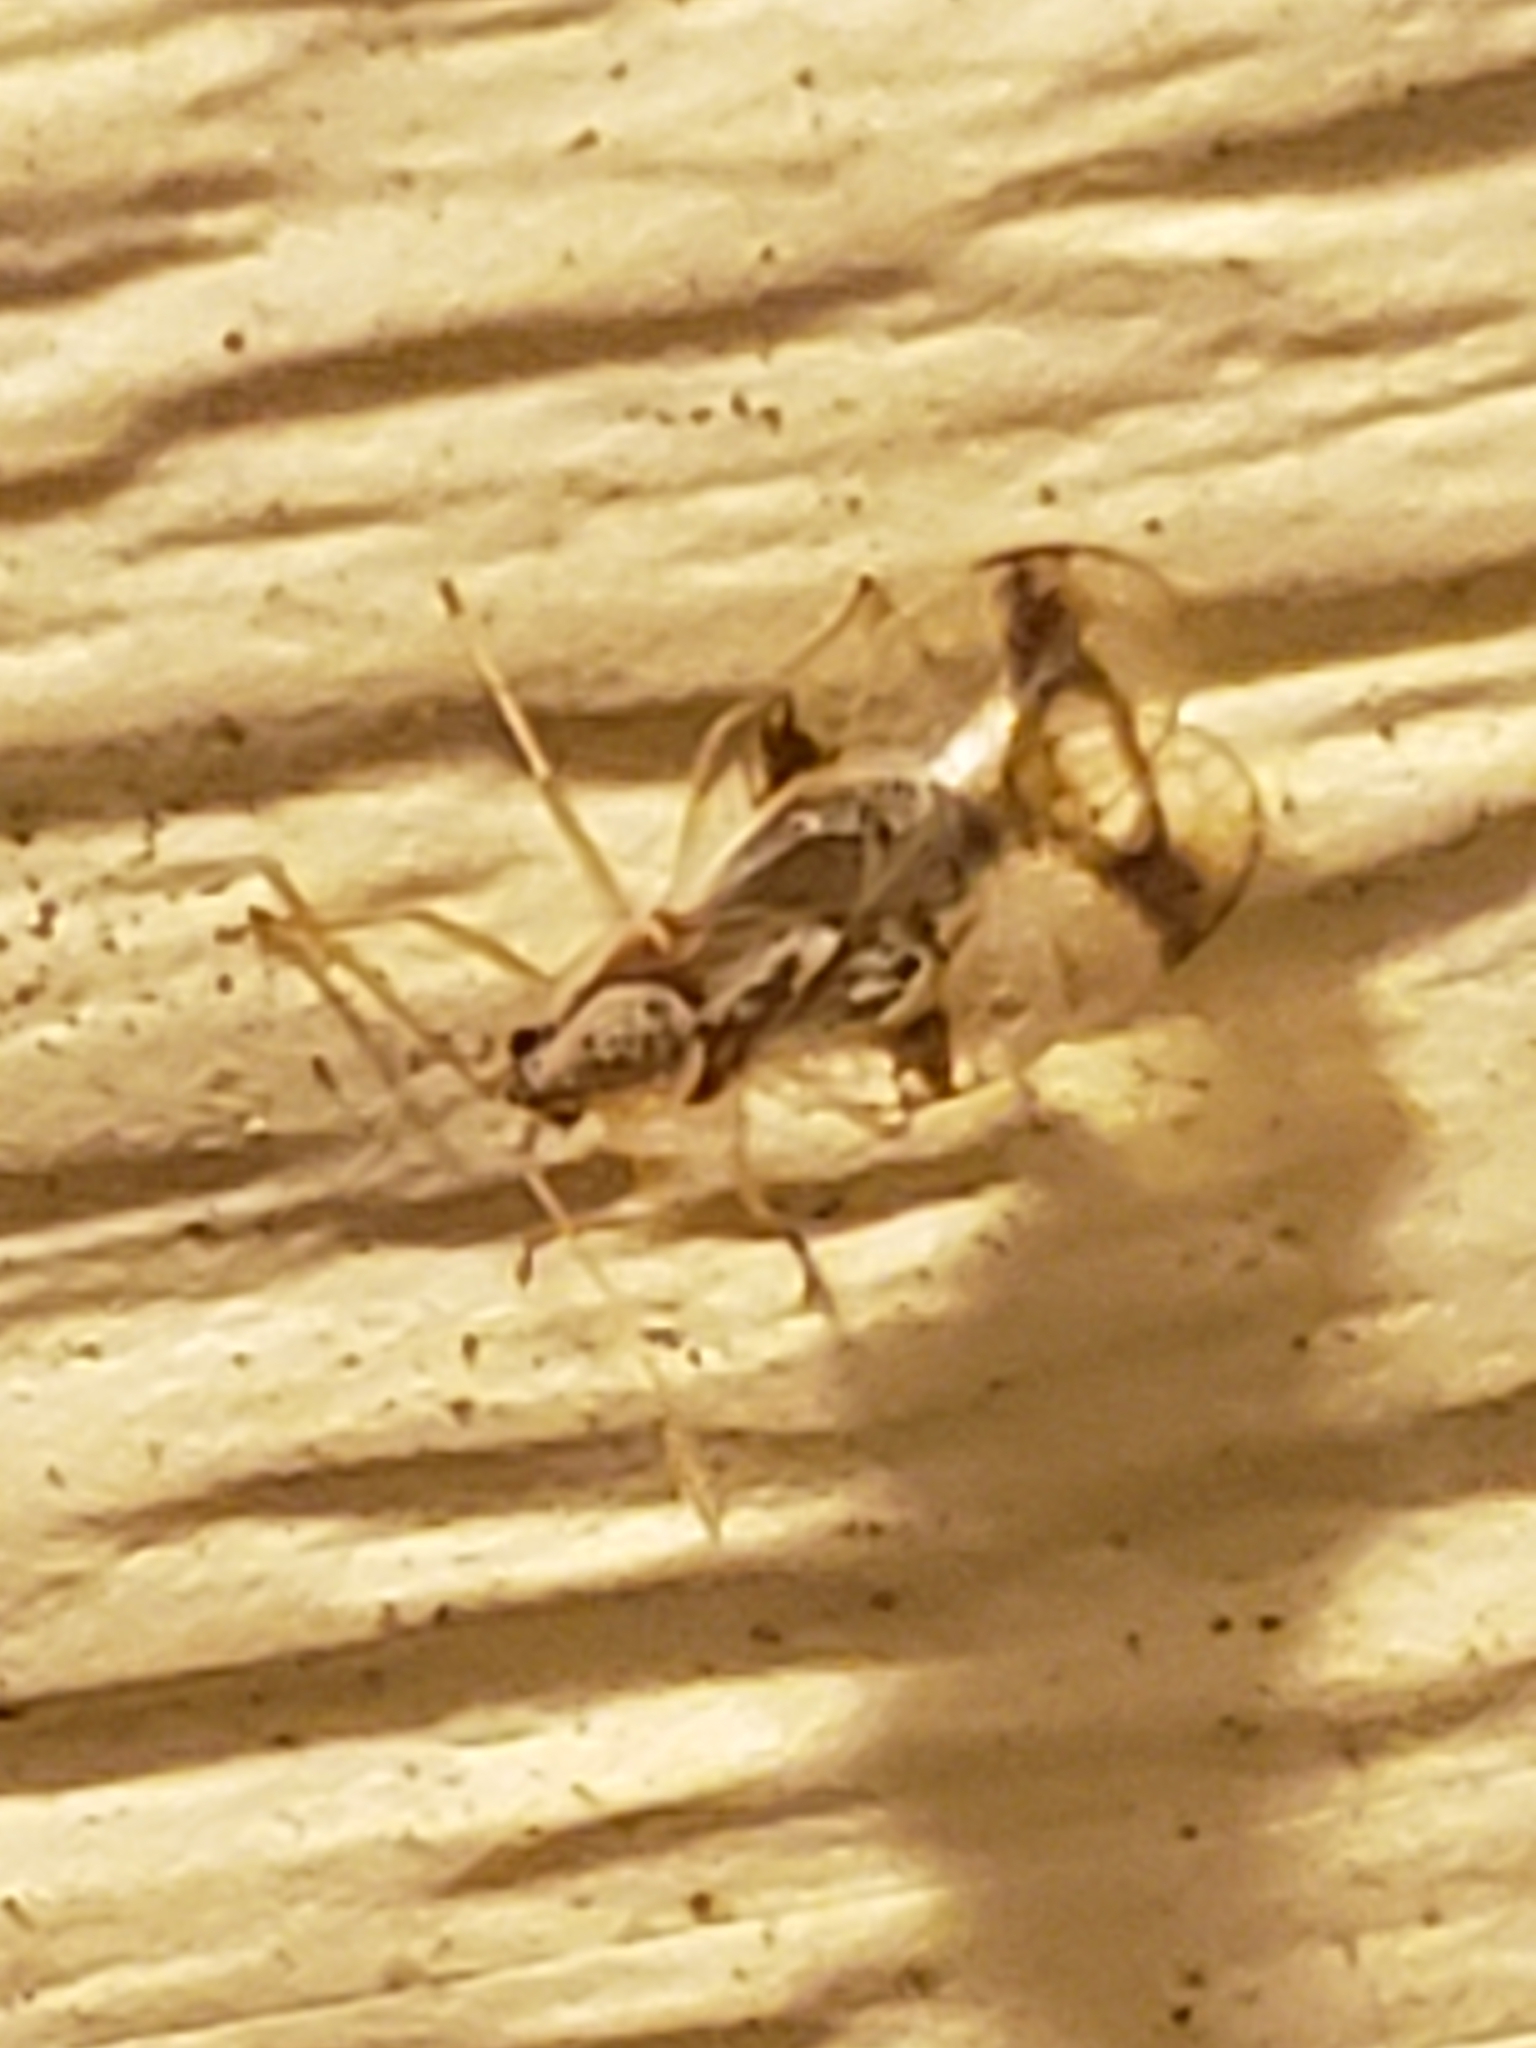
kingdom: Animalia
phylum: Arthropoda
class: Insecta
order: Hemiptera
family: Tingidae
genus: Stephanitis
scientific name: Stephanitis pyrioides
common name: Azalea lace bug
